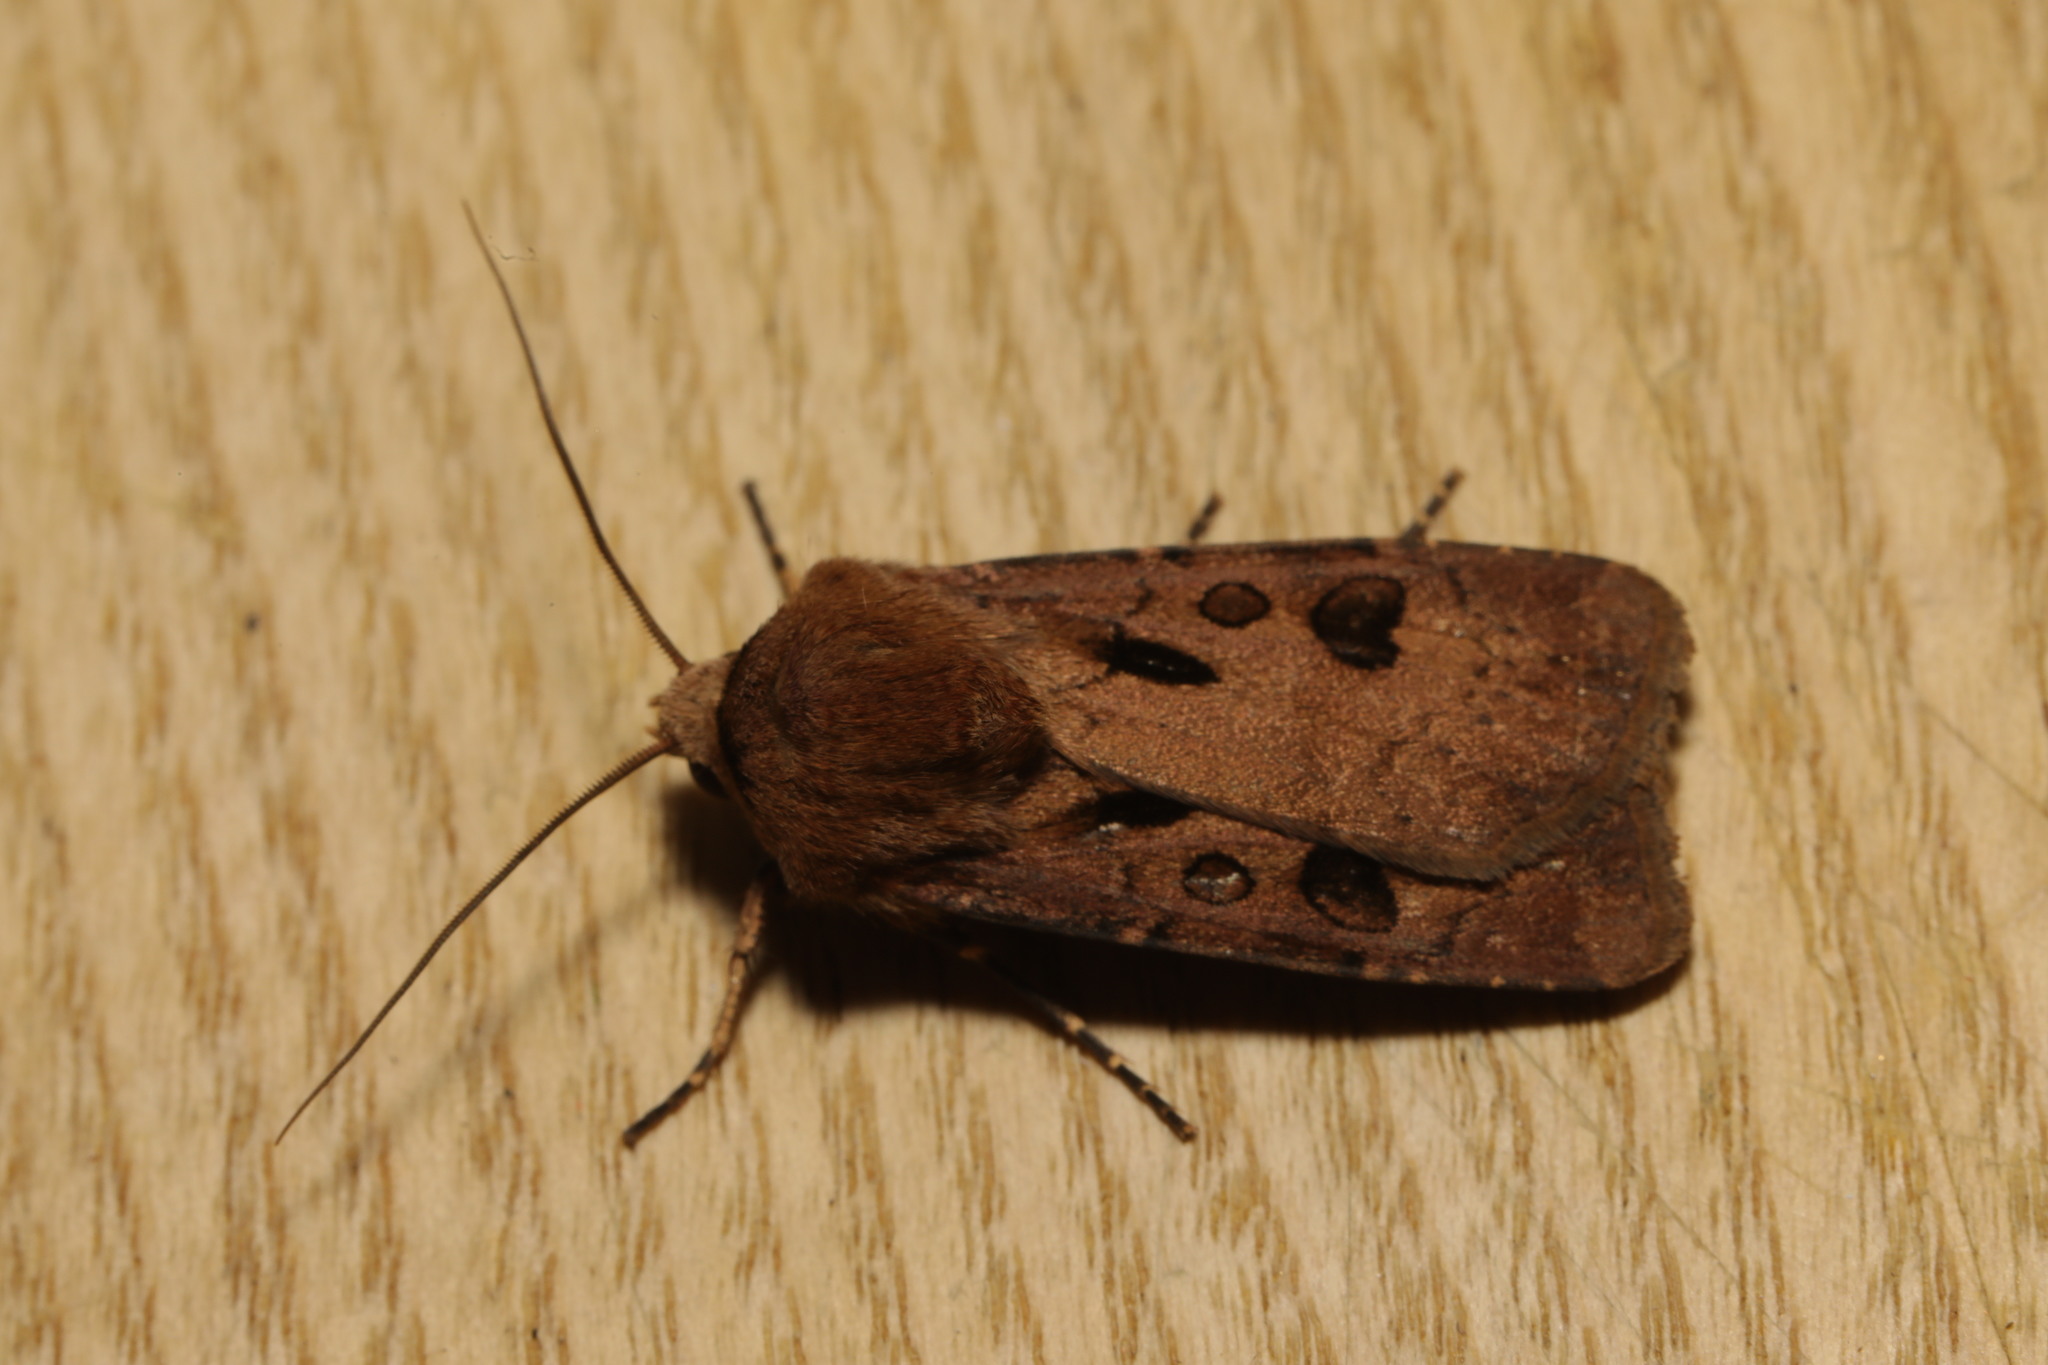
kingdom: Animalia
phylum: Arthropoda
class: Insecta
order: Lepidoptera
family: Noctuidae
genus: Agrotis
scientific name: Agrotis exclamationis
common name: Heart and dart
